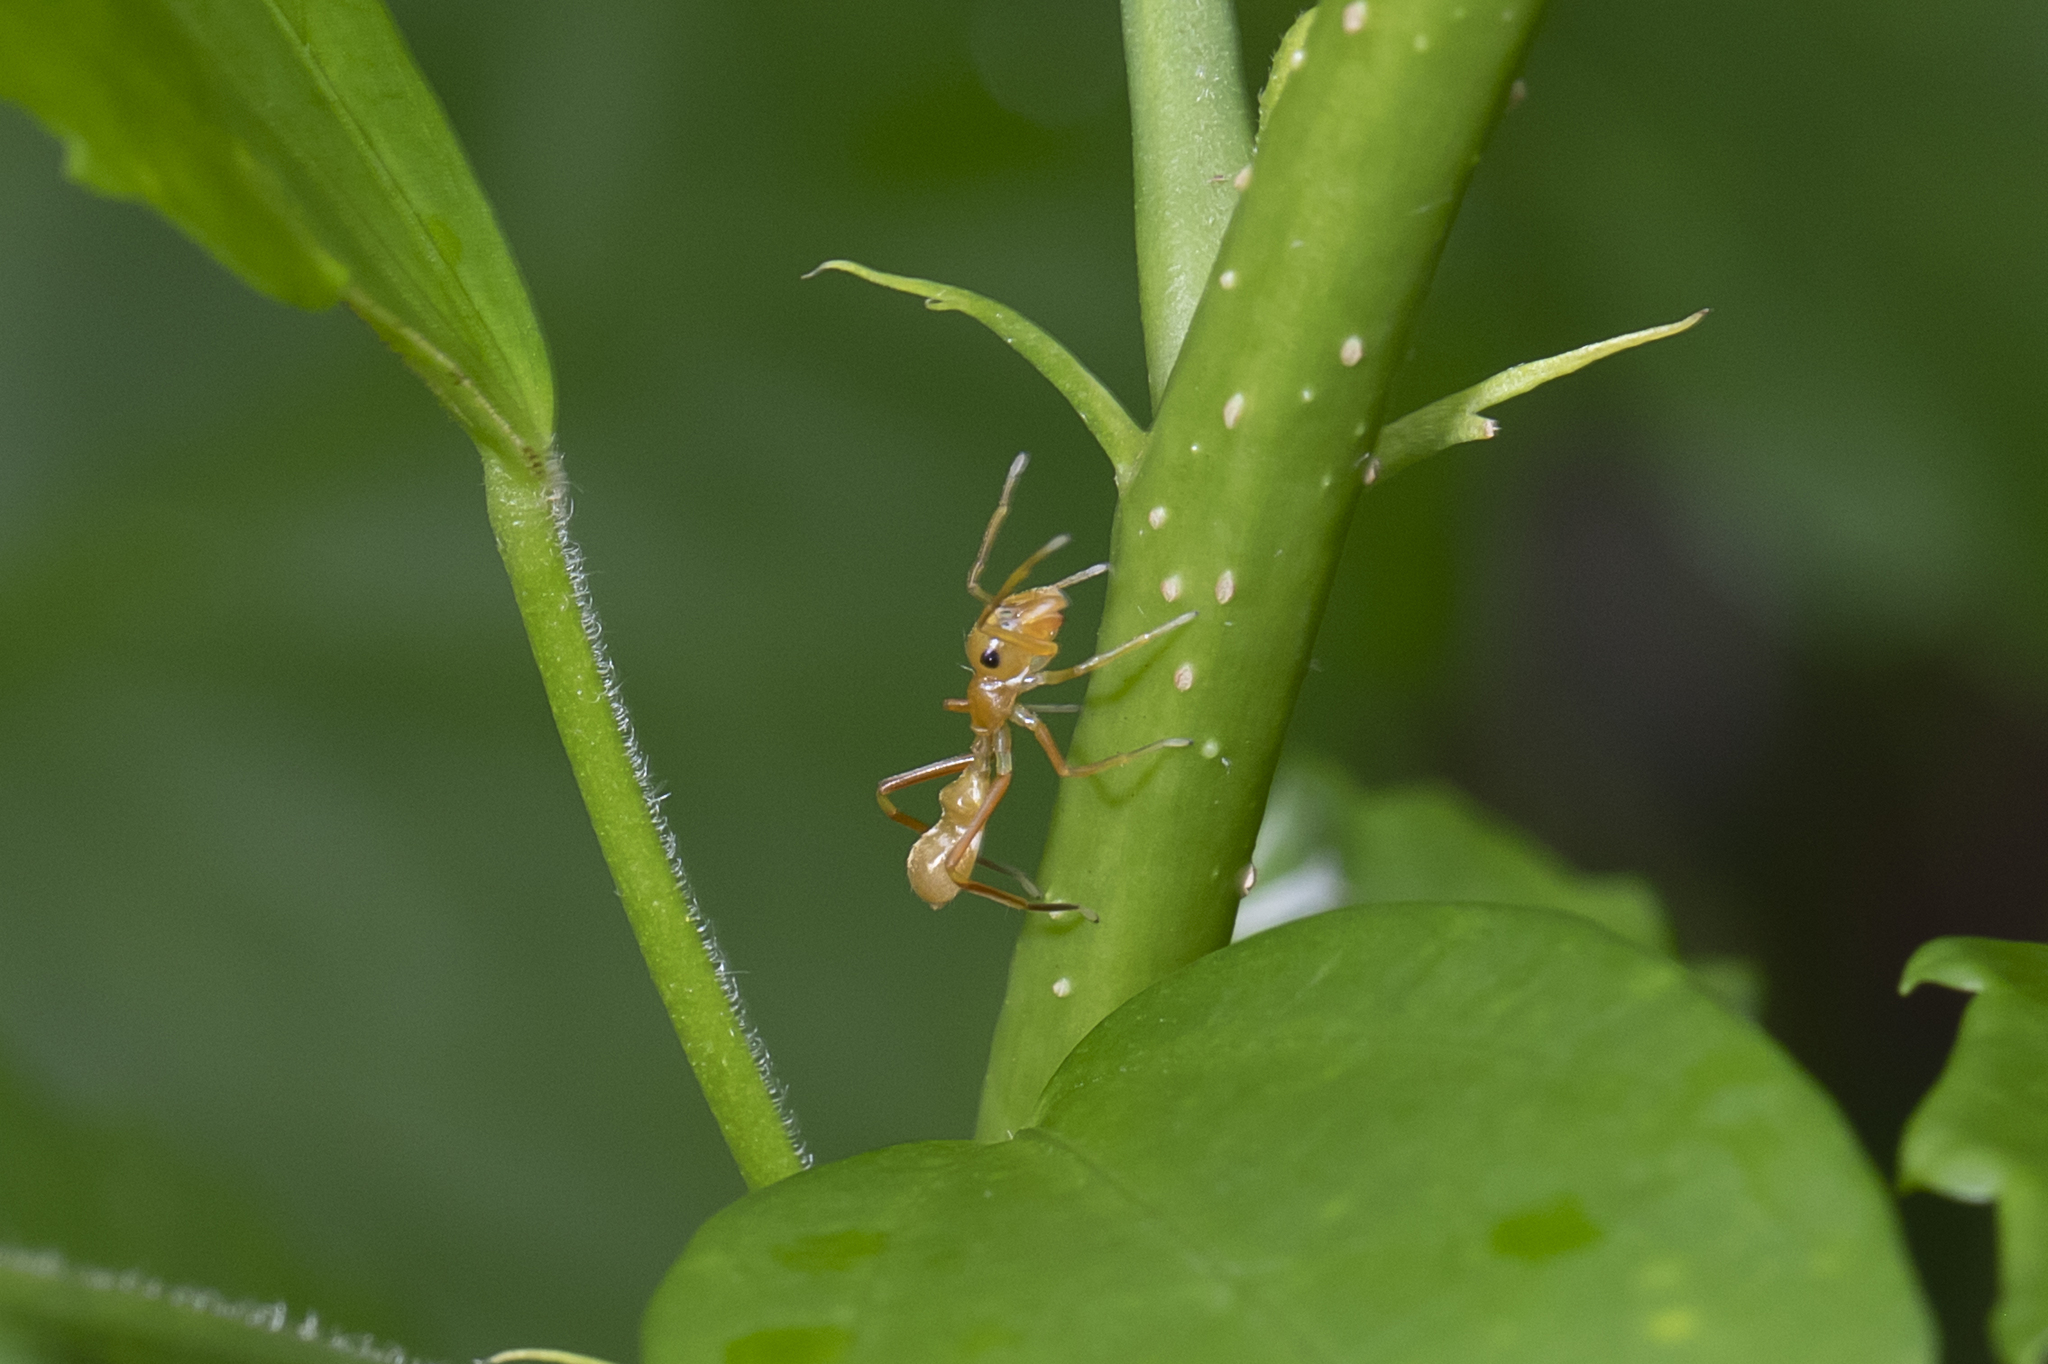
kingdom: Animalia
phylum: Arthropoda
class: Arachnida
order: Araneae
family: Salticidae
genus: Myrmarachne
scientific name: Myrmarachne smaragdina
